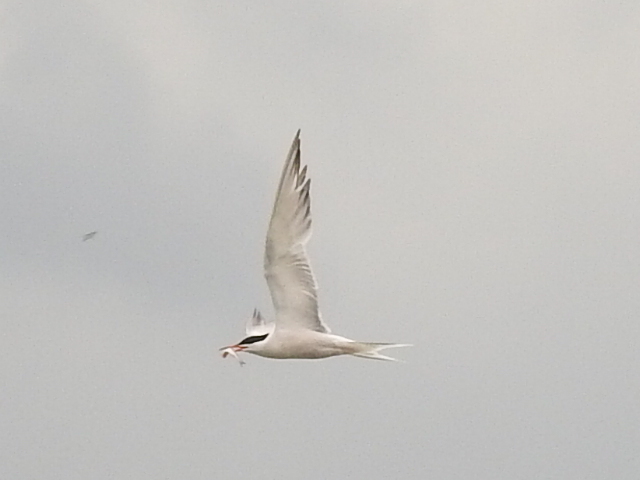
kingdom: Animalia
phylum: Chordata
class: Aves
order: Charadriiformes
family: Laridae
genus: Sterna
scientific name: Sterna hirundo
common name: Common tern
